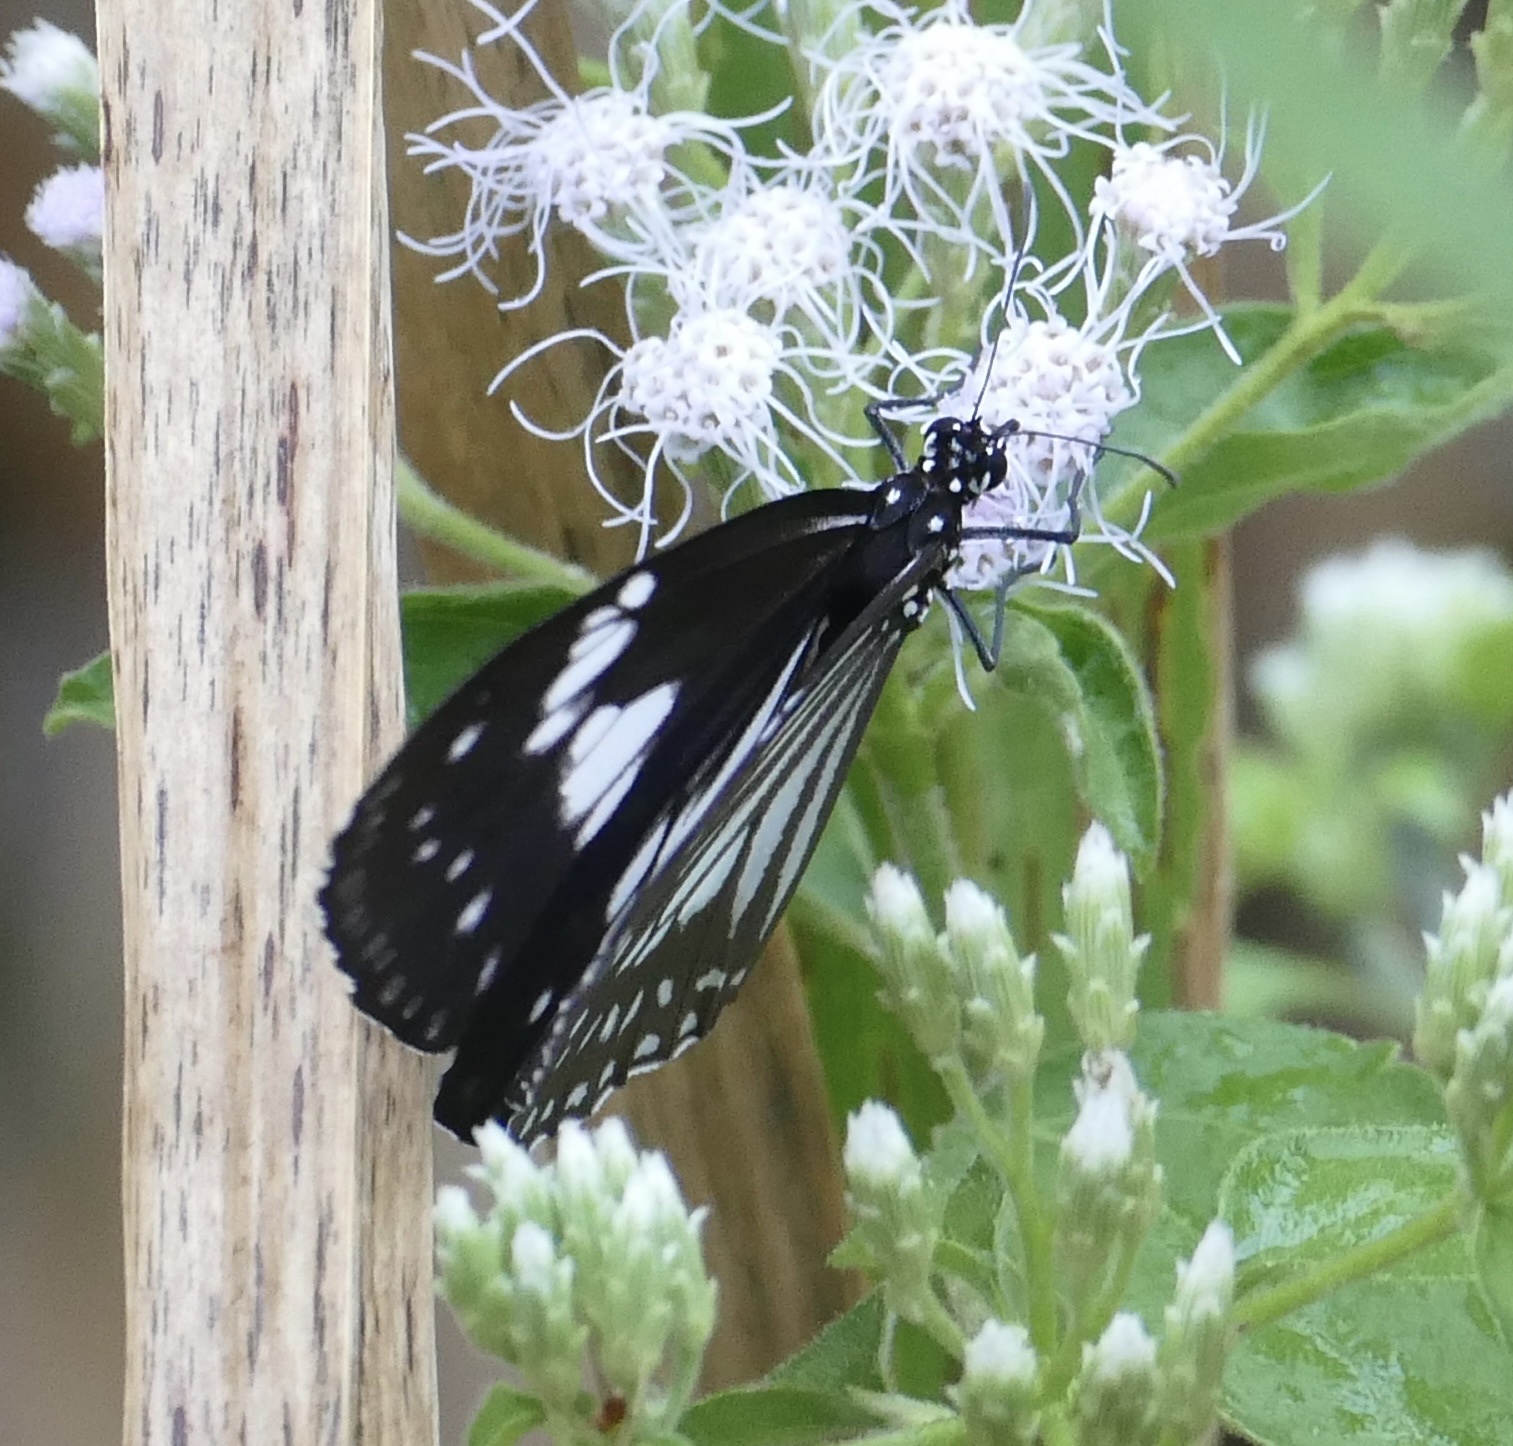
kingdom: Animalia
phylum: Arthropoda
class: Insecta
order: Lepidoptera
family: Nymphalidae
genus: Euploea
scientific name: Euploea hewitsonii
